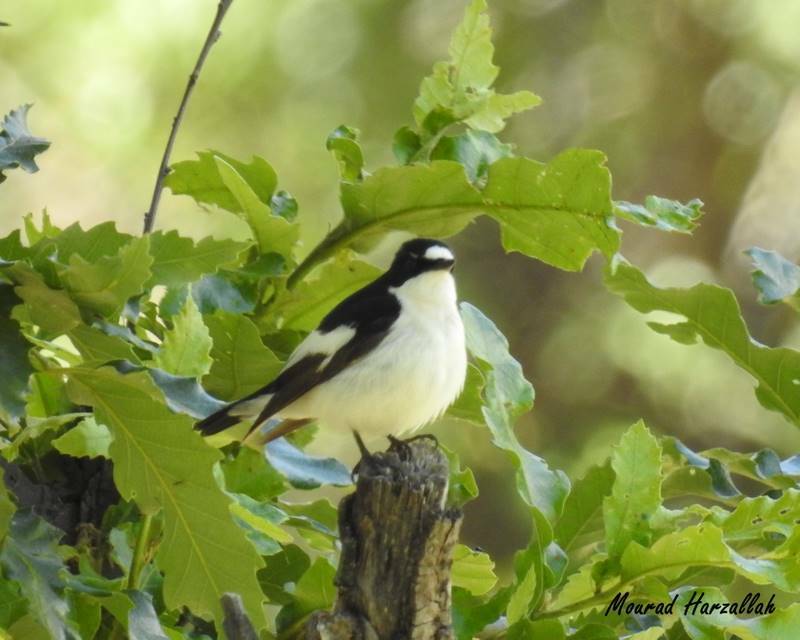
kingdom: Animalia
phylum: Chordata
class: Aves
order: Passeriformes
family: Muscicapidae
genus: Ficedula
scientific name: Ficedula speculigera
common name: Atlas pied flycatcher
